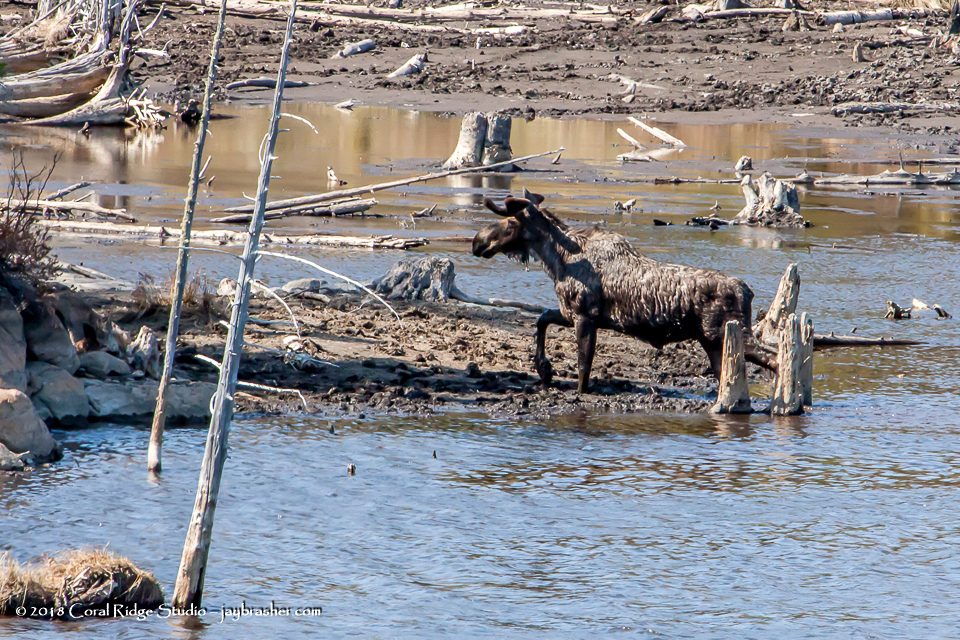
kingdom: Animalia
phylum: Chordata
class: Mammalia
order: Artiodactyla
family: Cervidae
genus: Alces
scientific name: Alces alces
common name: Moose
